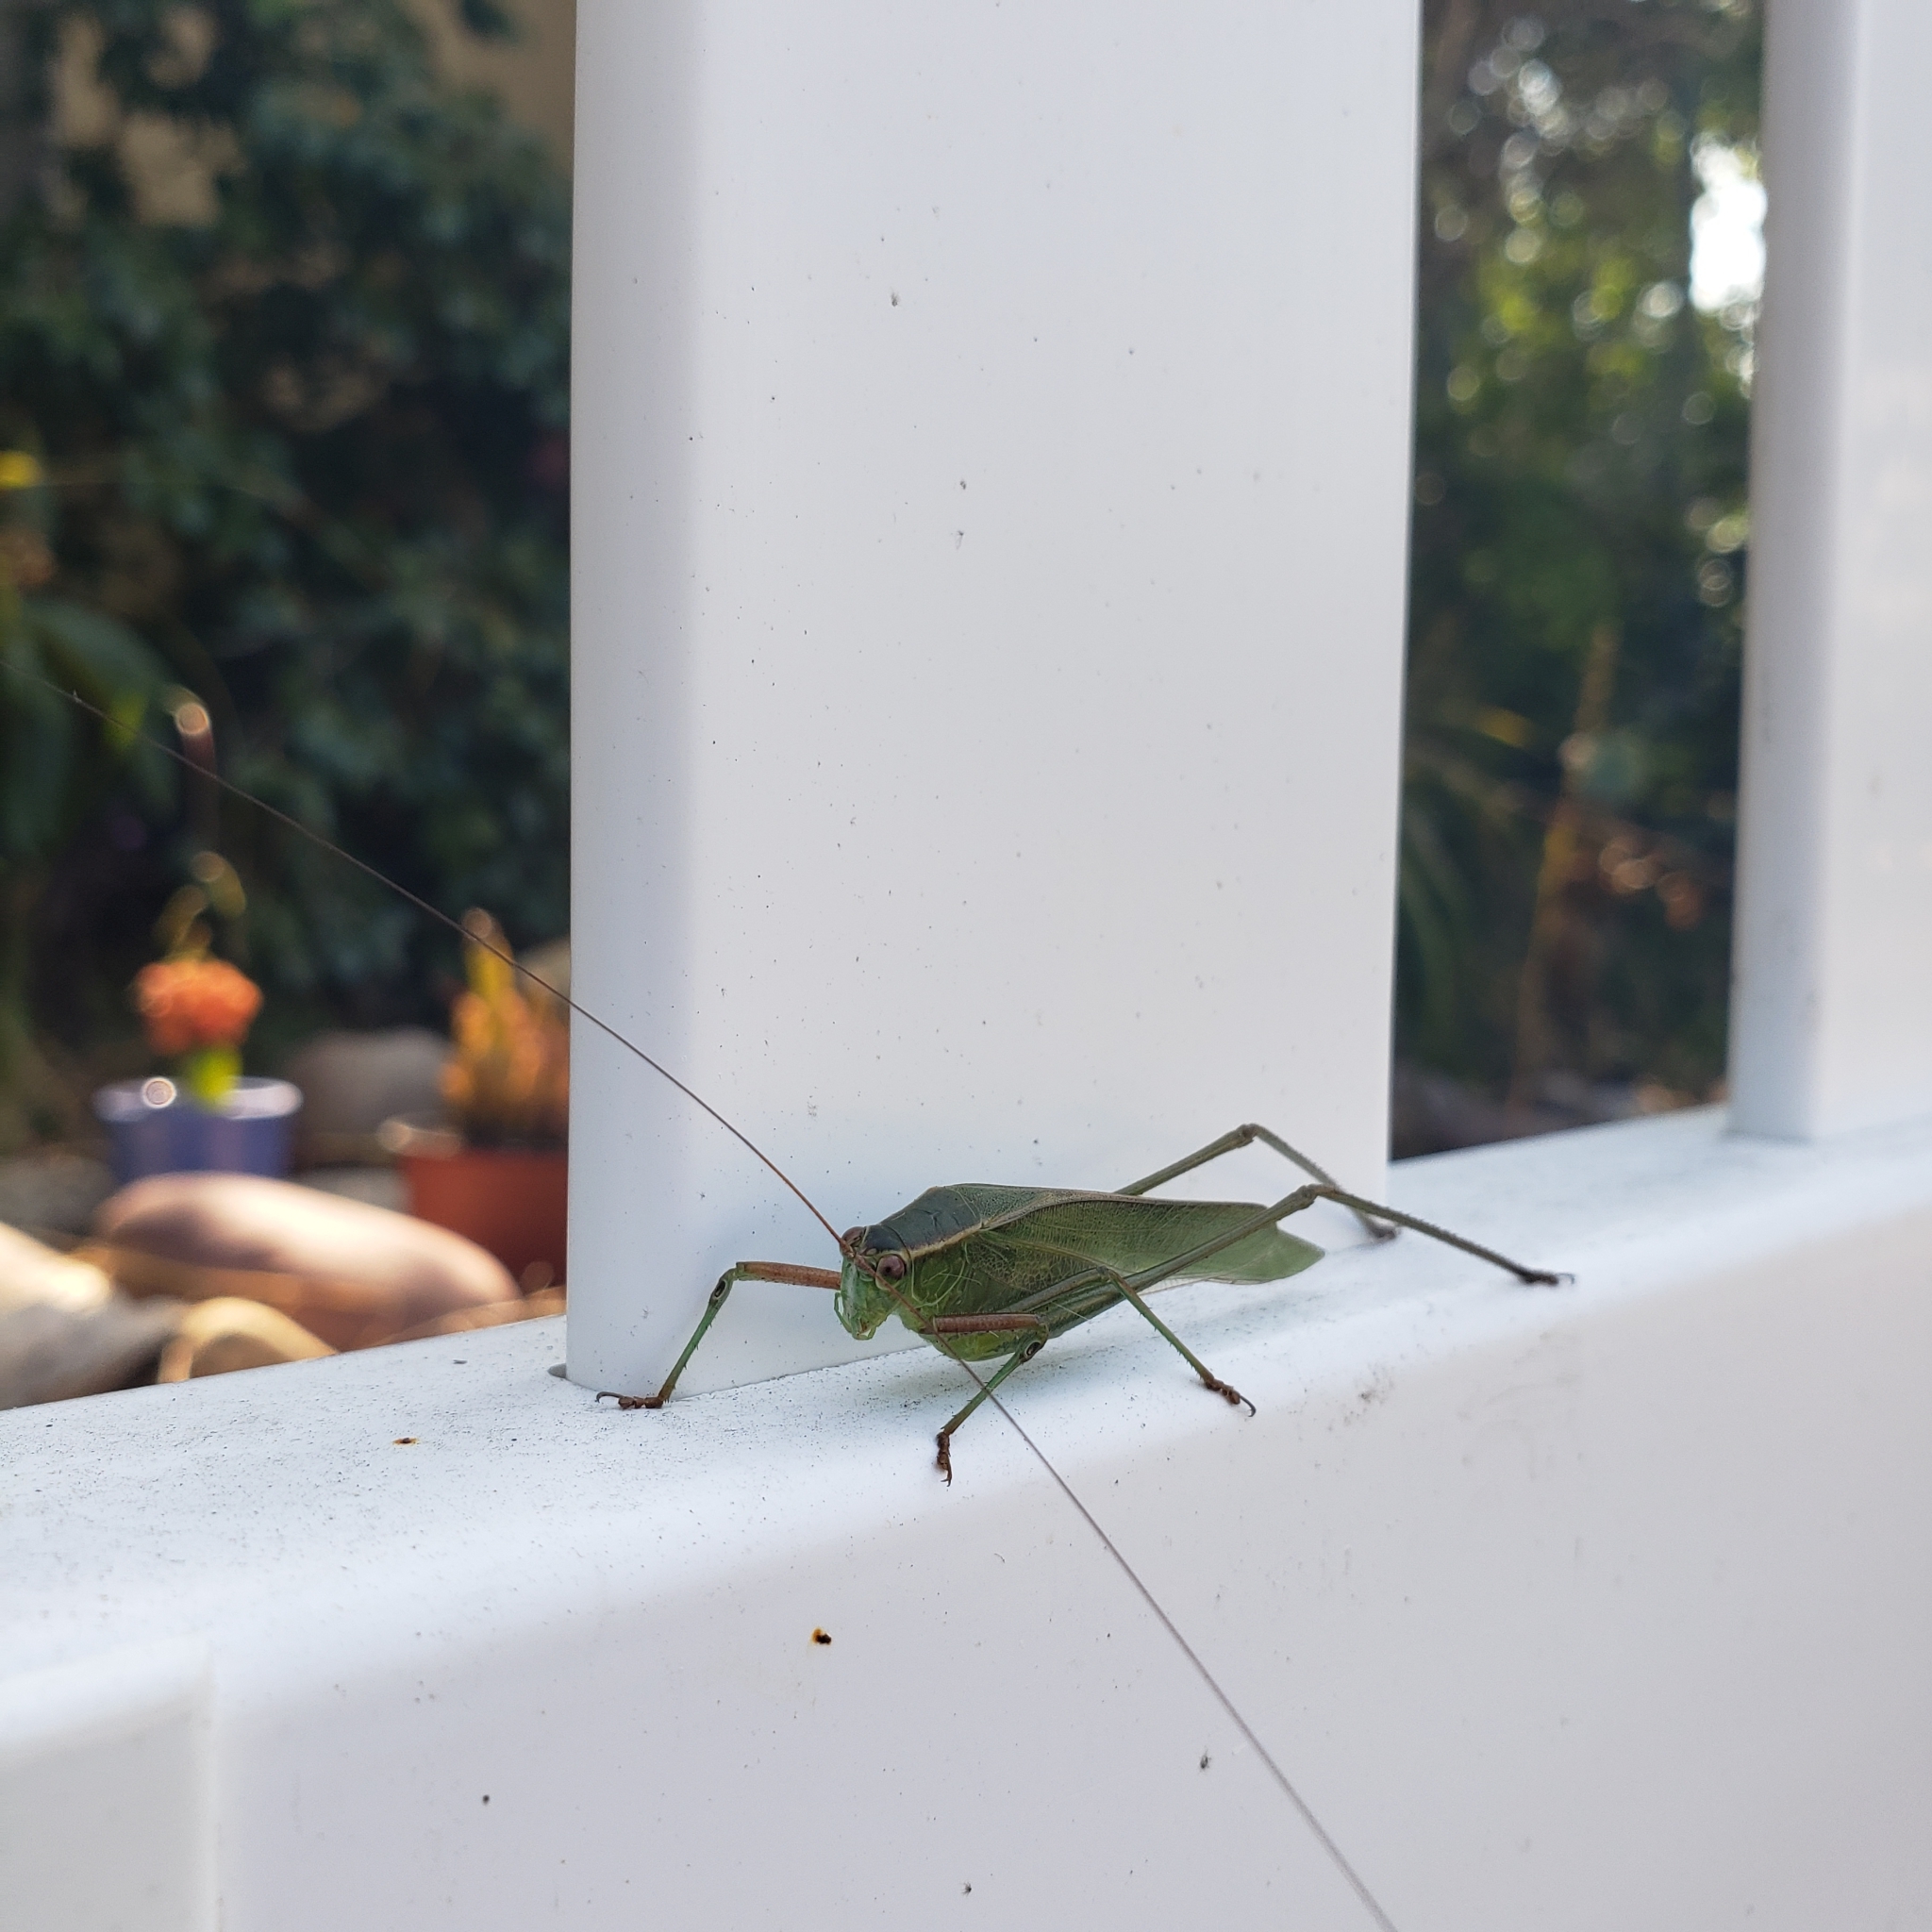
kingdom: Animalia
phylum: Arthropoda
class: Insecta
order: Orthoptera
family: Tettigoniidae
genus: Scudderia
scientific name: Scudderia
